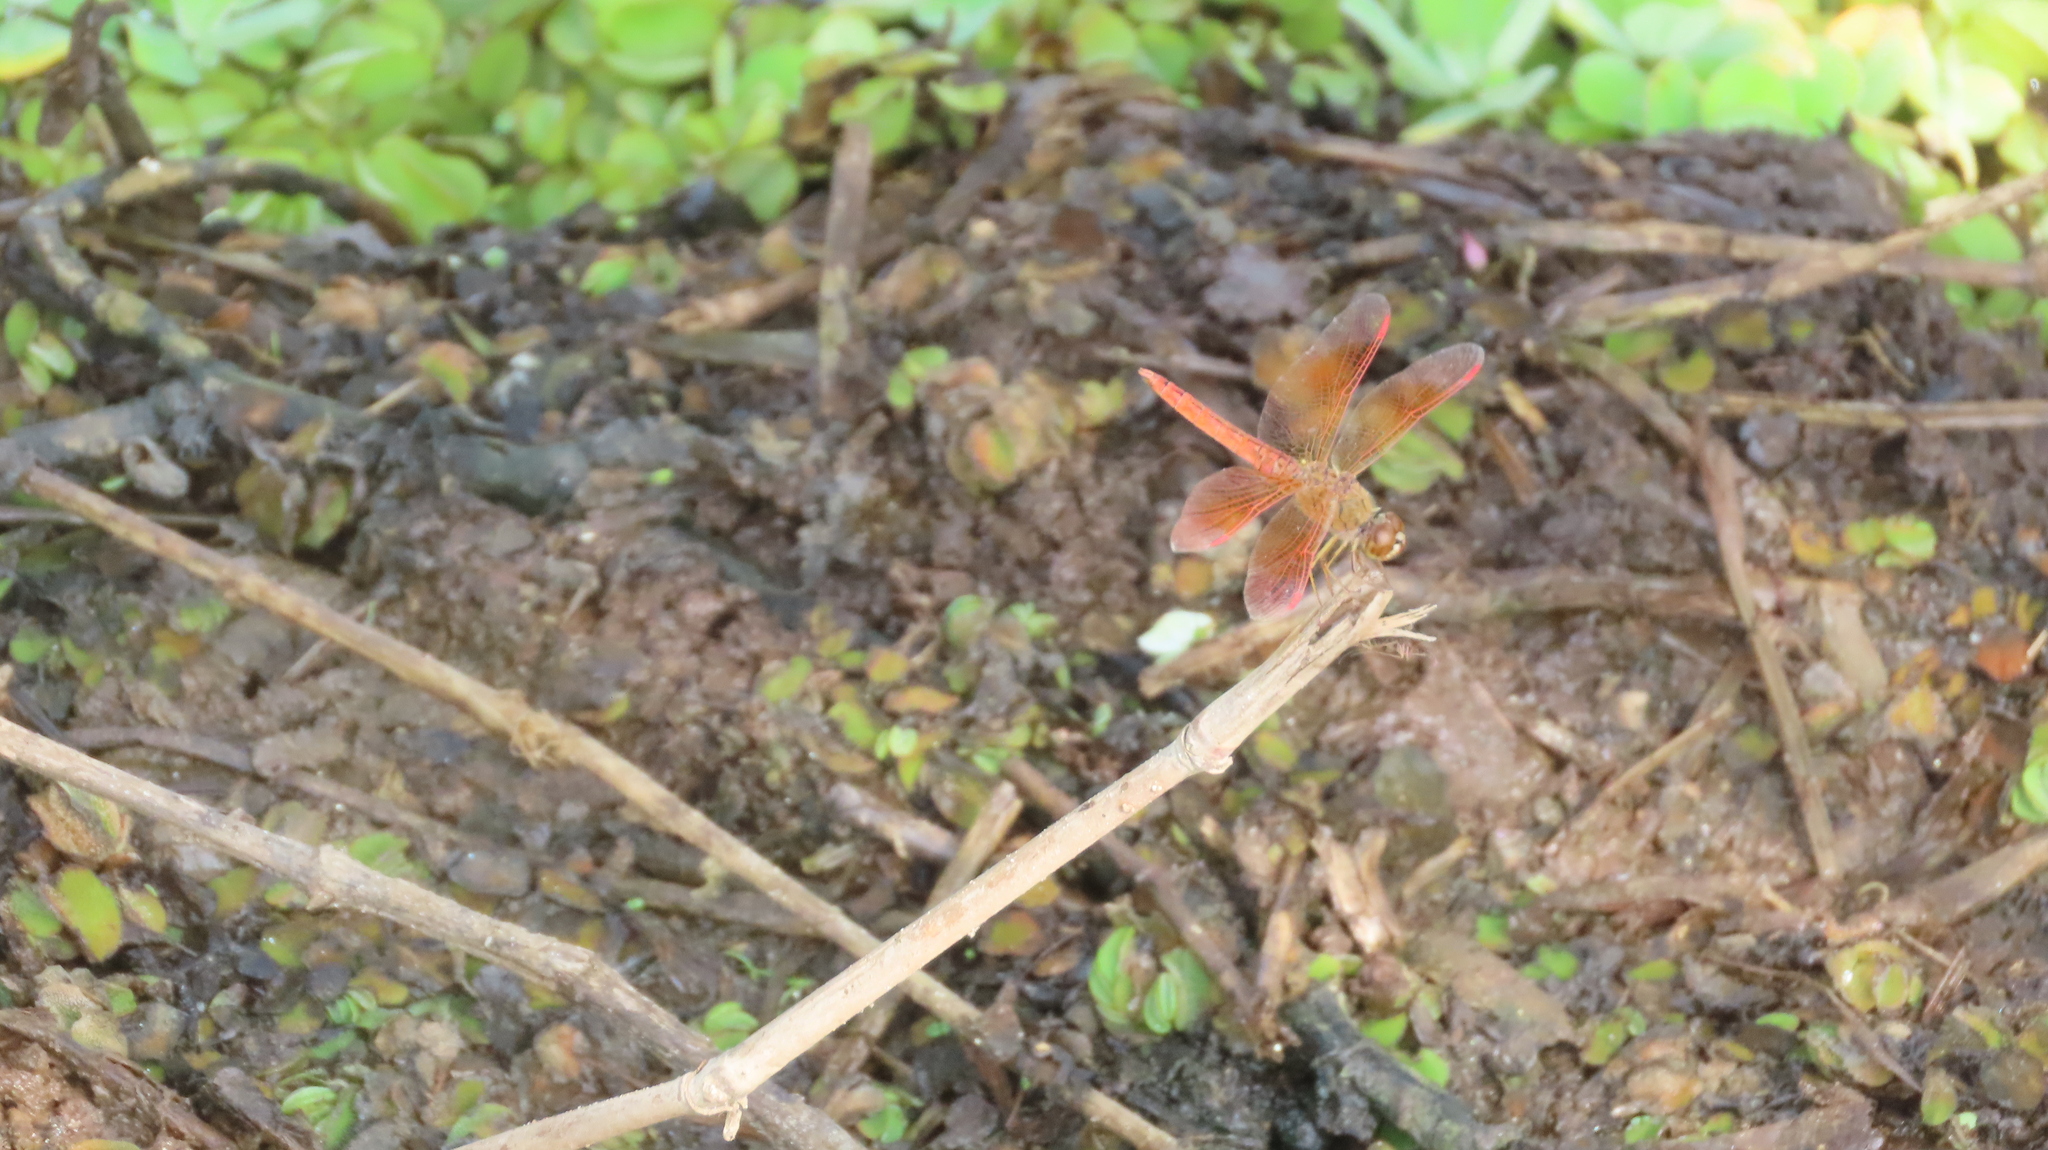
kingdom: Animalia
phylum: Arthropoda
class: Insecta
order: Odonata
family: Libellulidae
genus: Brachythemis
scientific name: Brachythemis contaminata
